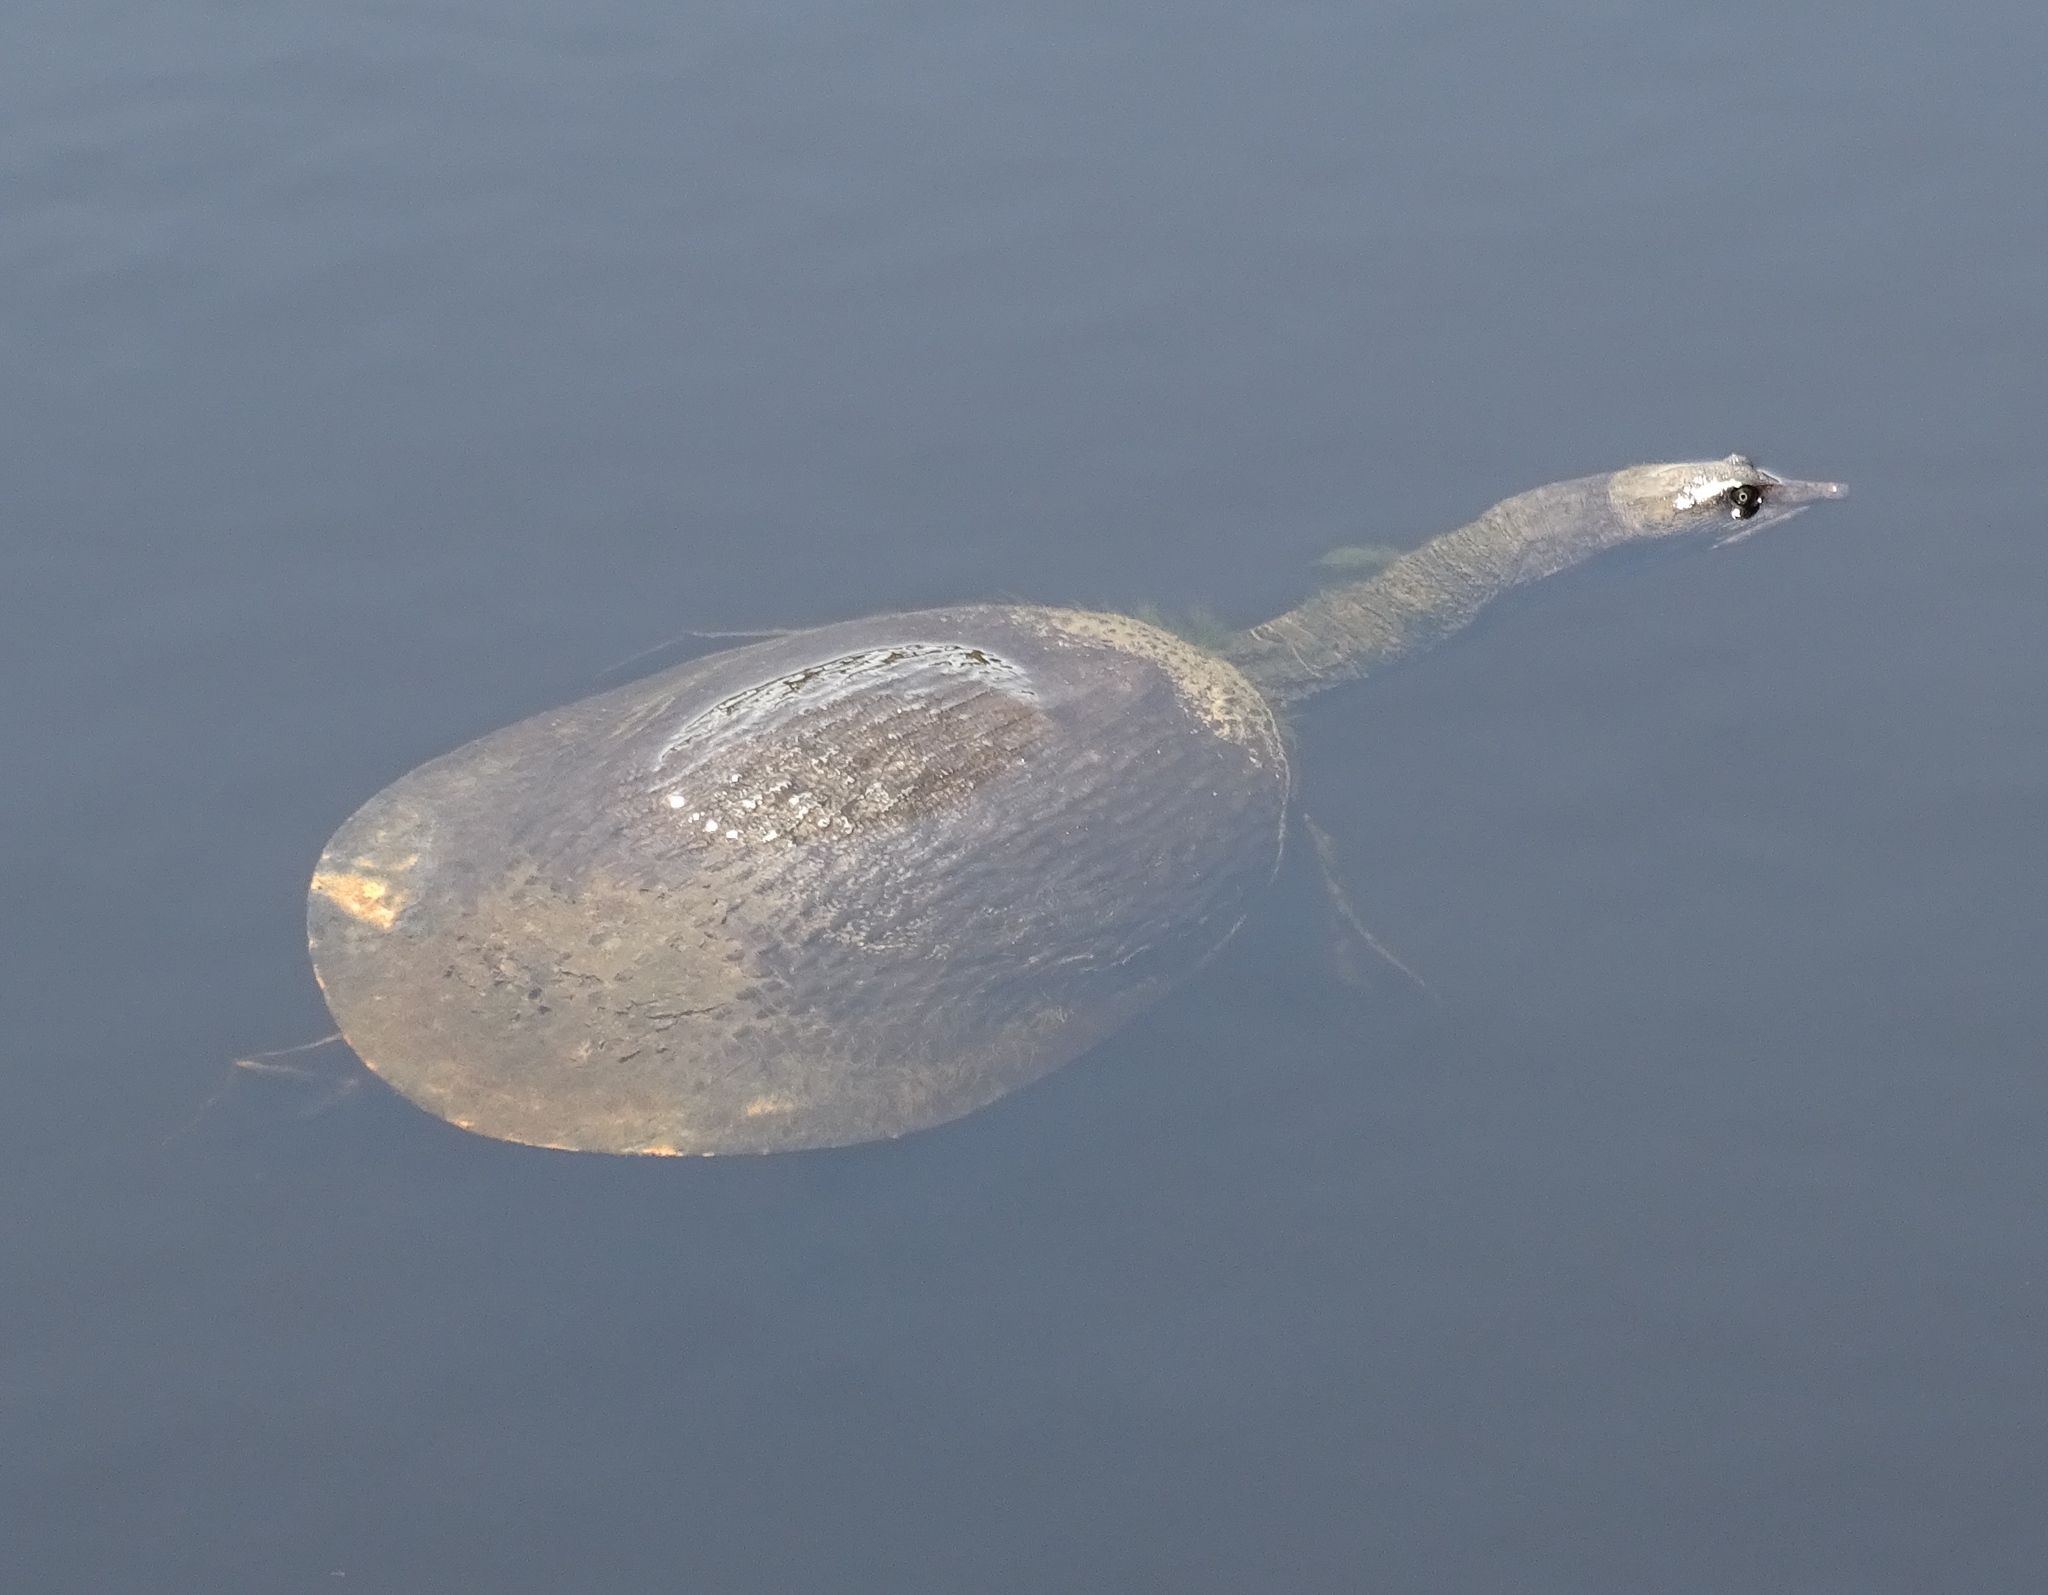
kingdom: Animalia
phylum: Chordata
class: Testudines
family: Trionychidae
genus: Apalone
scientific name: Apalone ferox
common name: Florida softshell turtle
